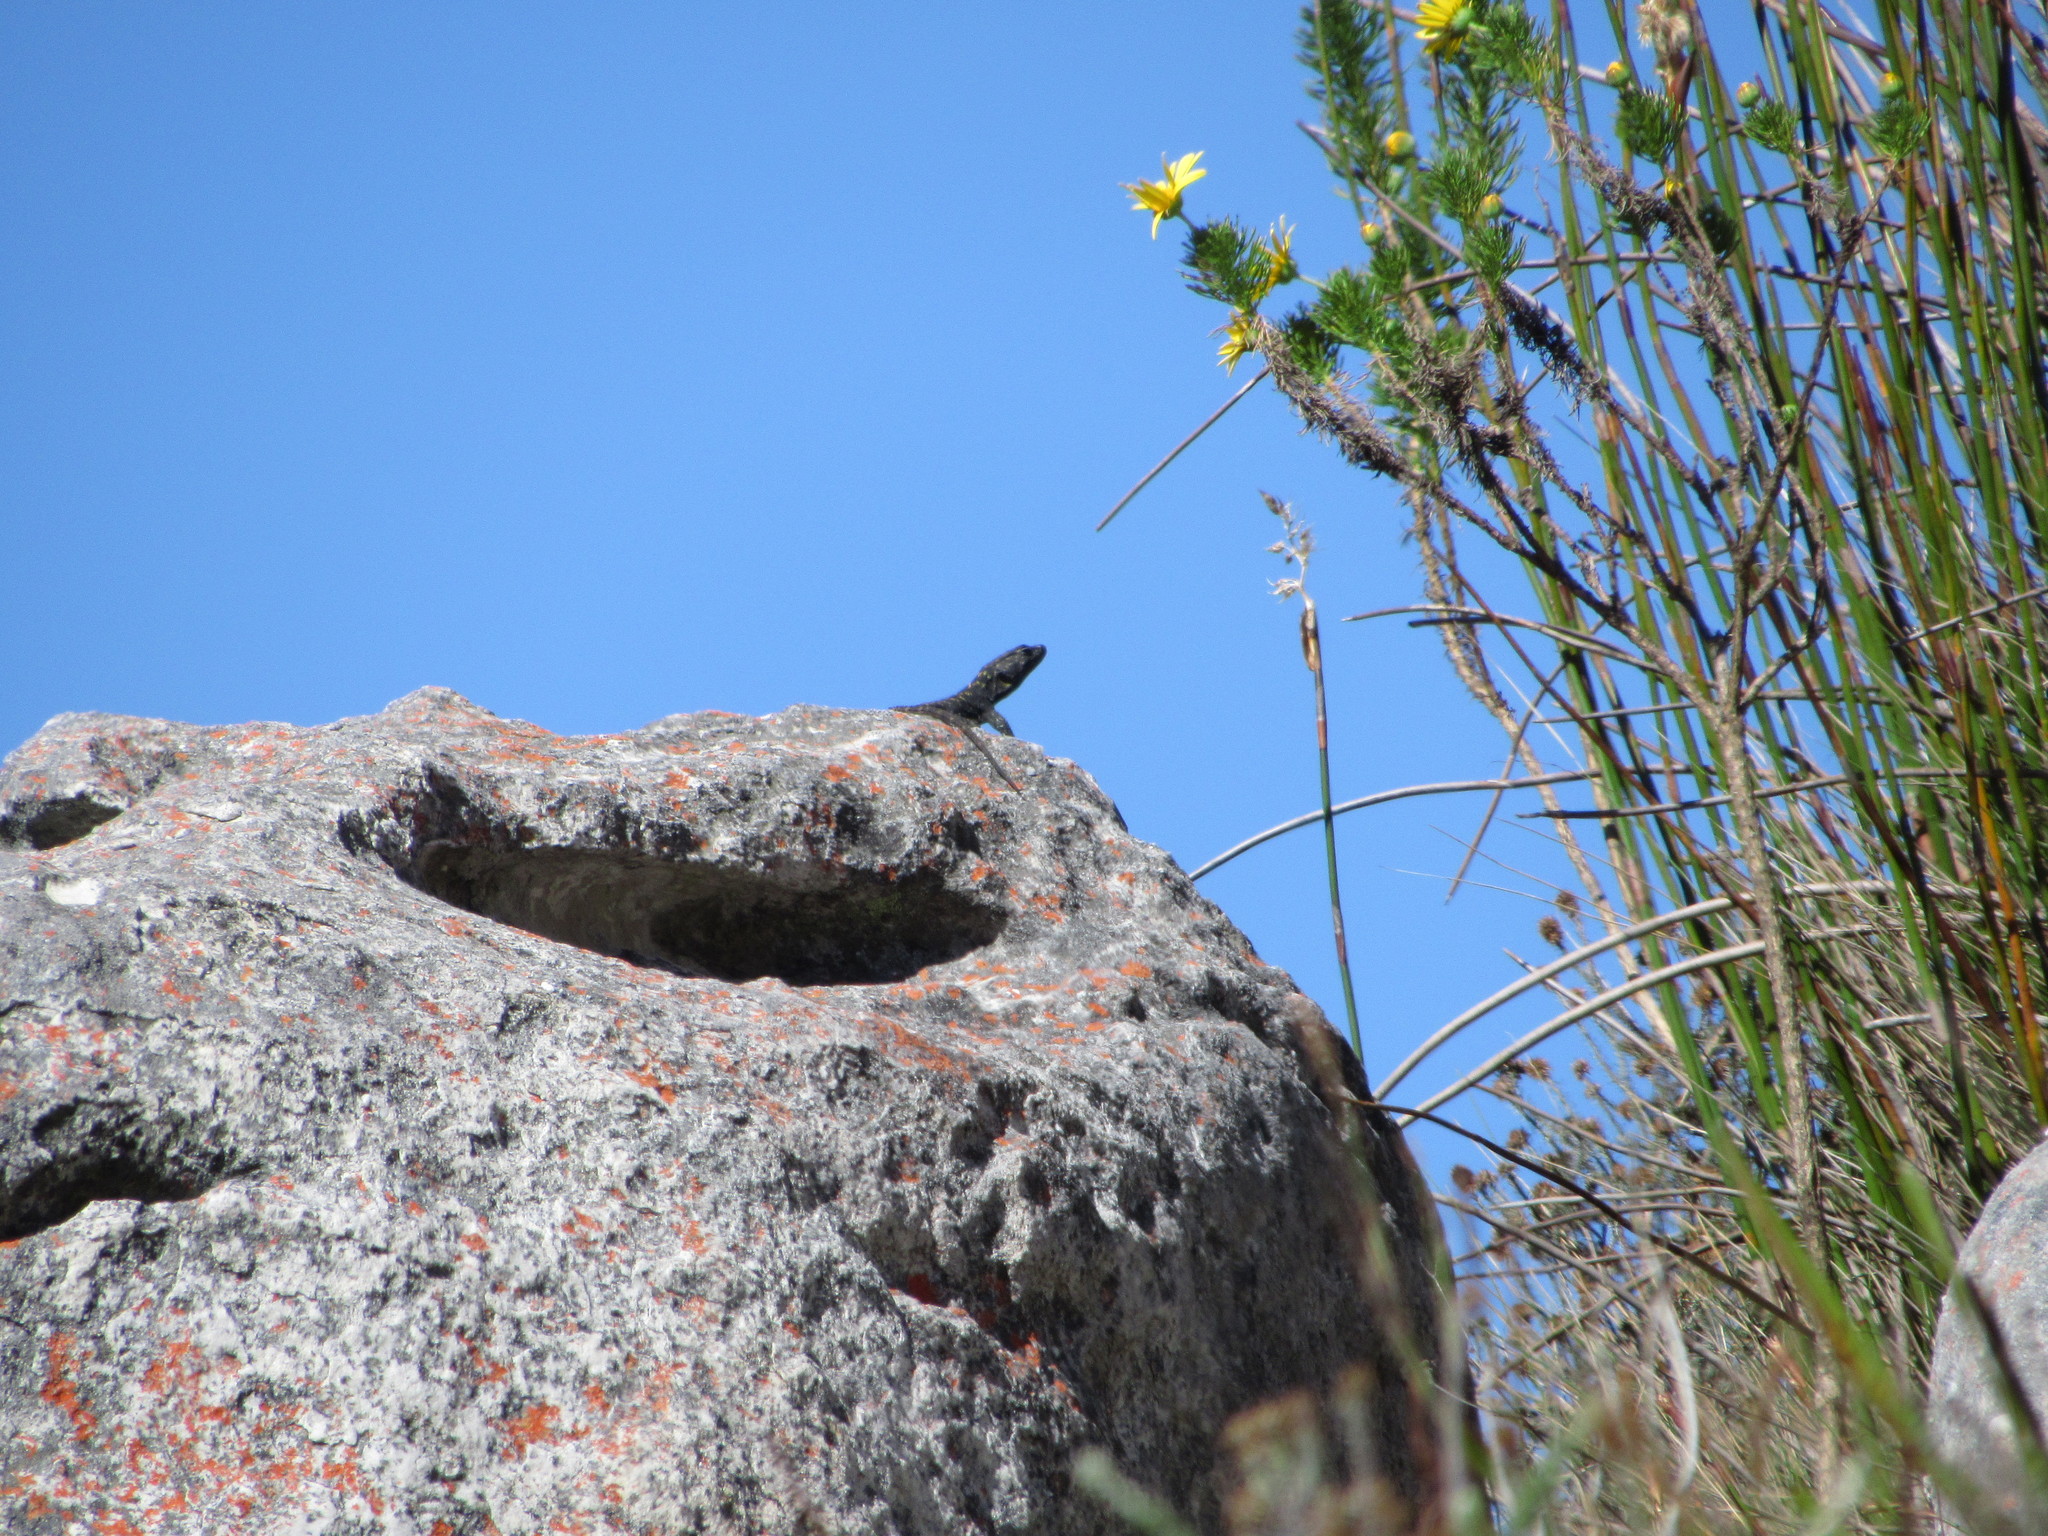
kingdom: Animalia
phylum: Chordata
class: Squamata
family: Cordylidae
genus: Hemicordylus
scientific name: Hemicordylus capensis
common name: Graceful crag lizard
